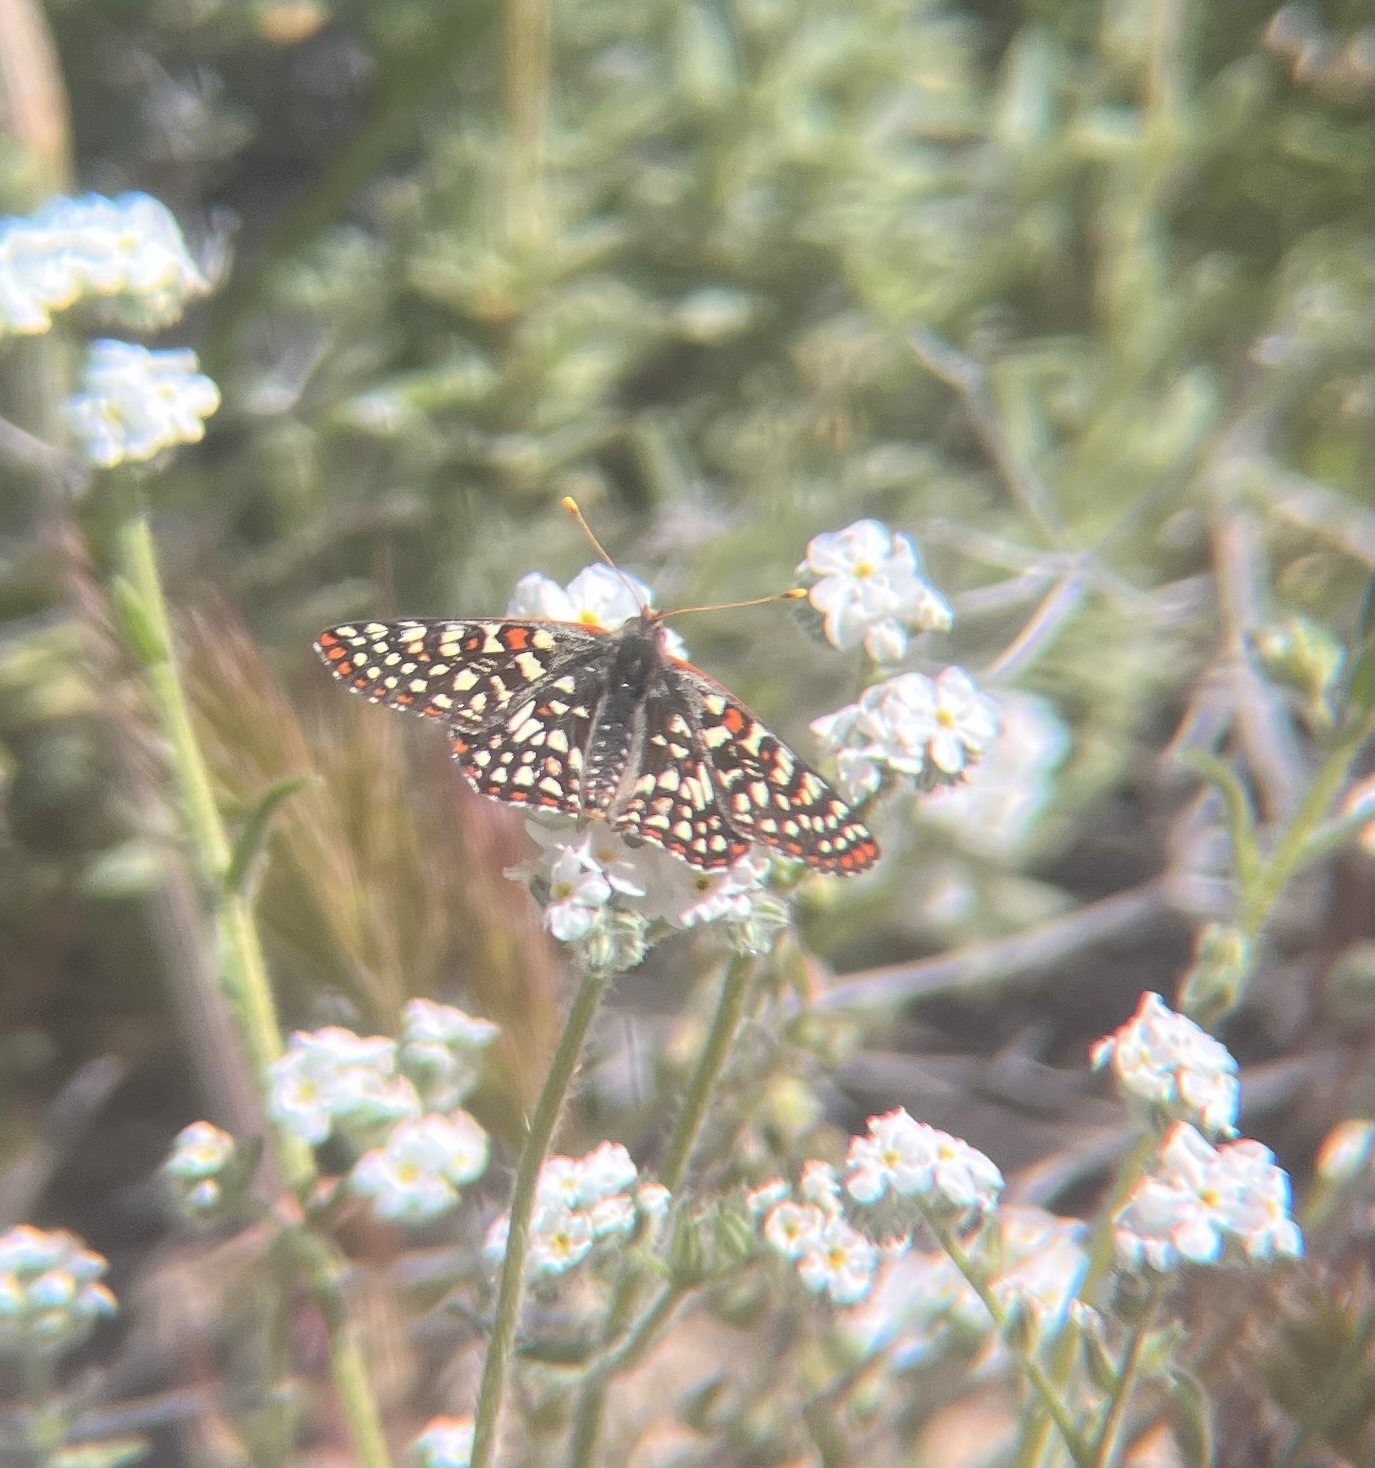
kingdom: Animalia
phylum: Arthropoda
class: Insecta
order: Lepidoptera
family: Nymphalidae
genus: Occidryas
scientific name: Occidryas chalcedona
